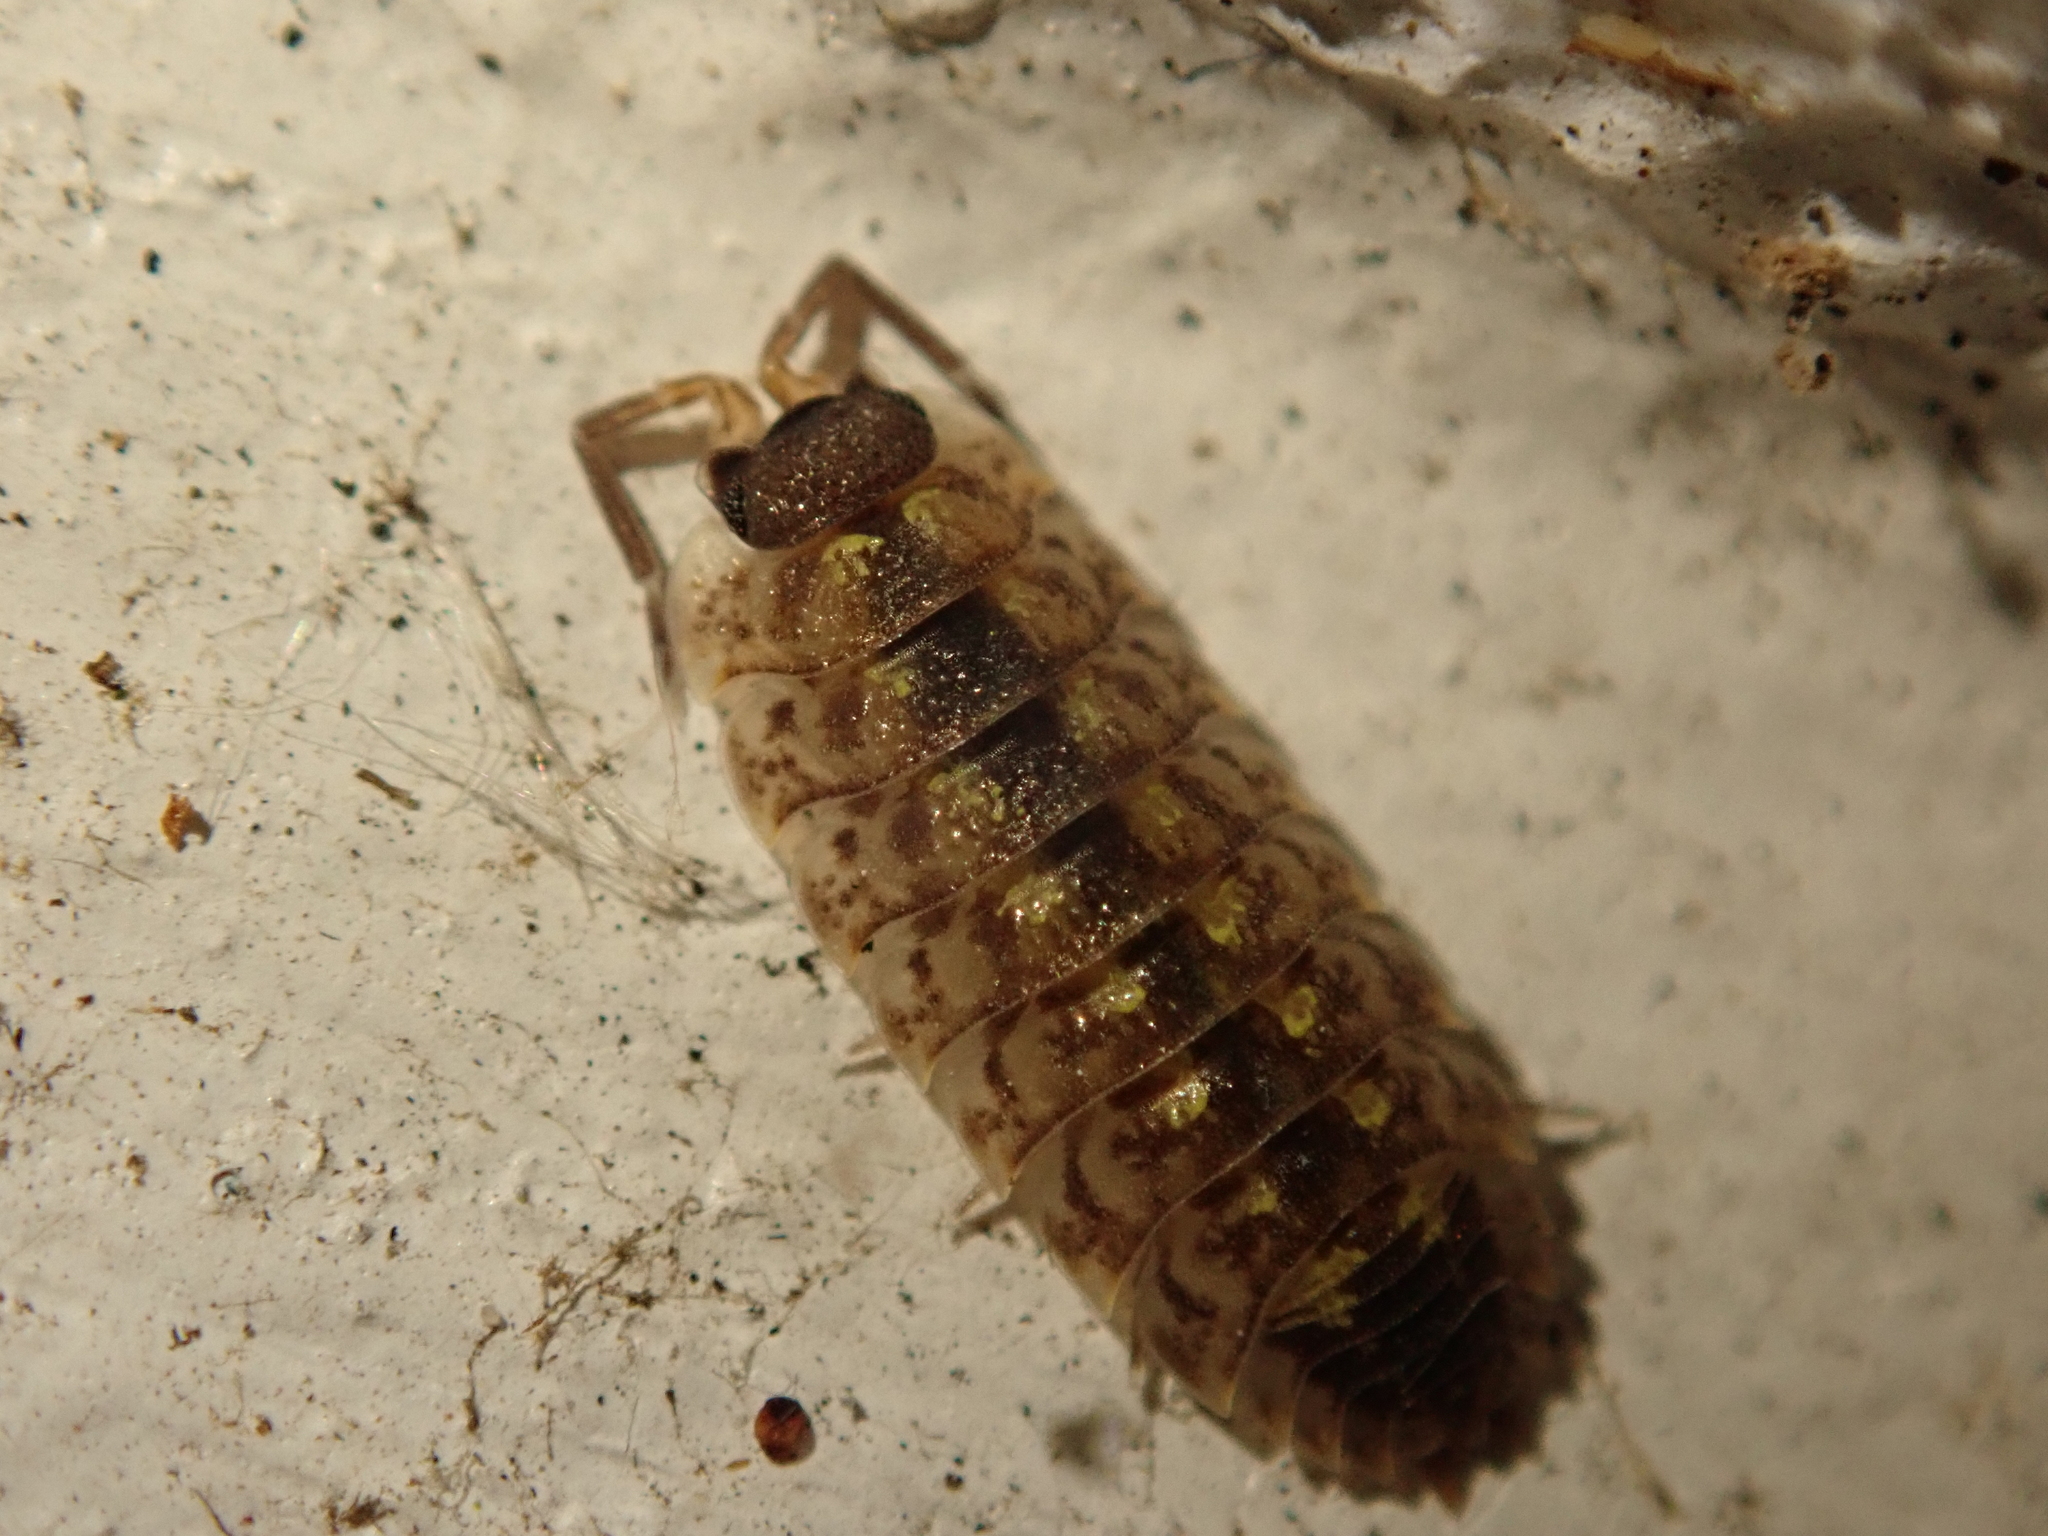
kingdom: Animalia
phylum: Arthropoda
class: Malacostraca
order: Isopoda
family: Porcellionidae
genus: Porcellio
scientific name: Porcellio spinicornis
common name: Painted woodlouse
